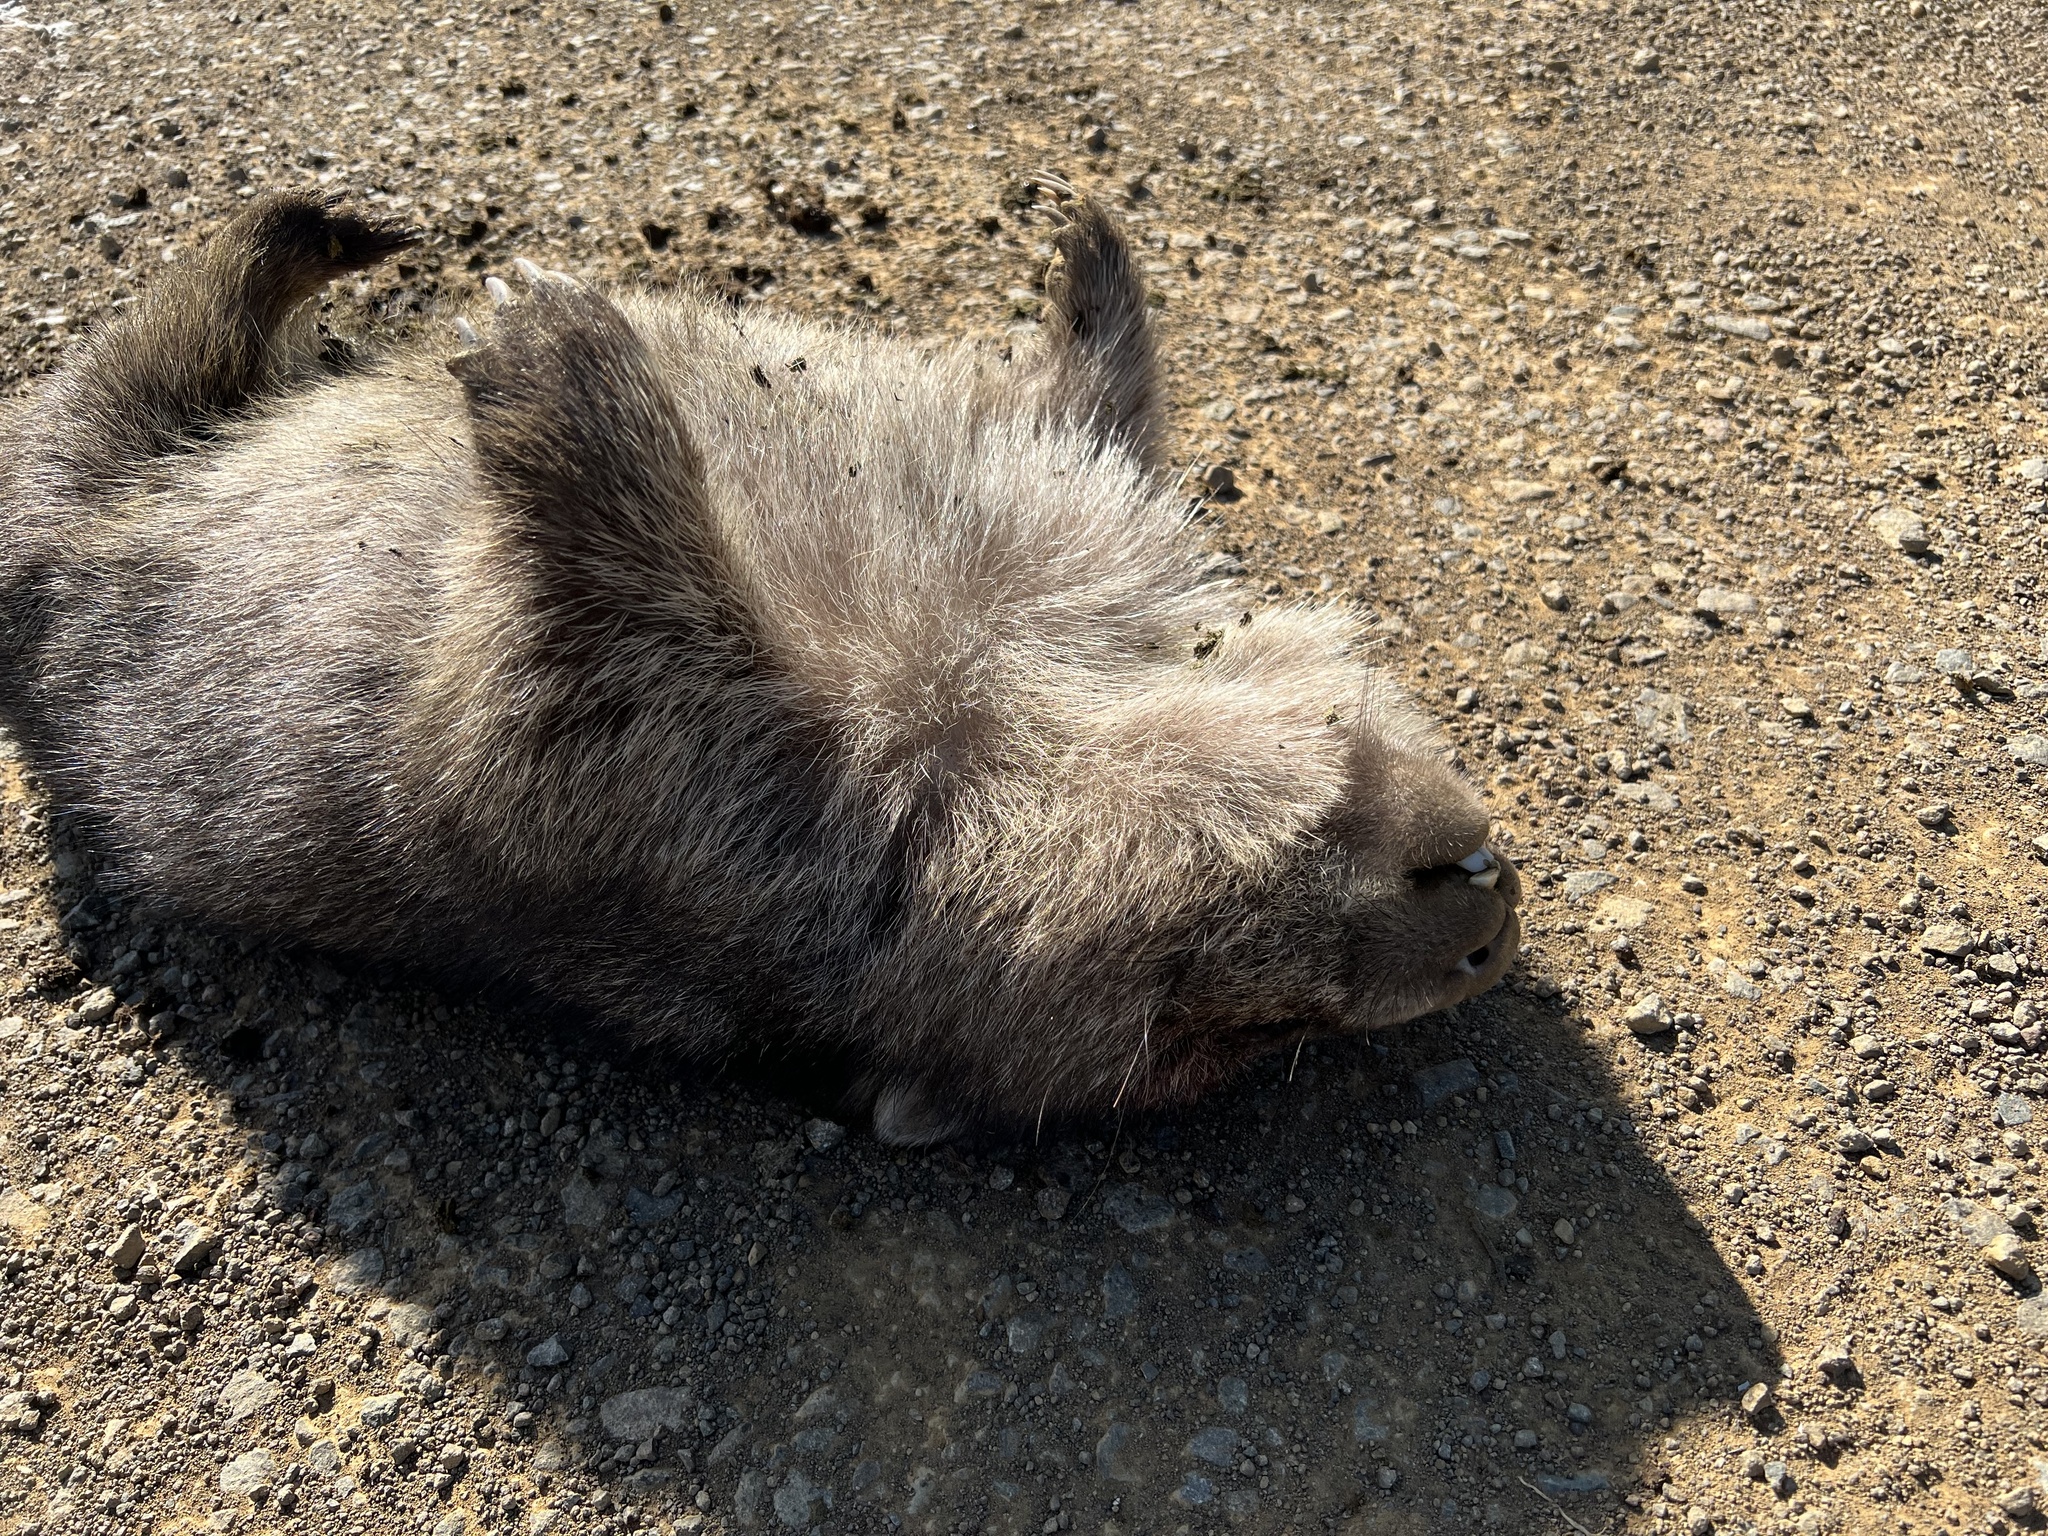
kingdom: Animalia
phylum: Chordata
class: Mammalia
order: Diprotodontia
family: Vombatidae
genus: Vombatus
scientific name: Vombatus ursinus
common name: Common wombat
